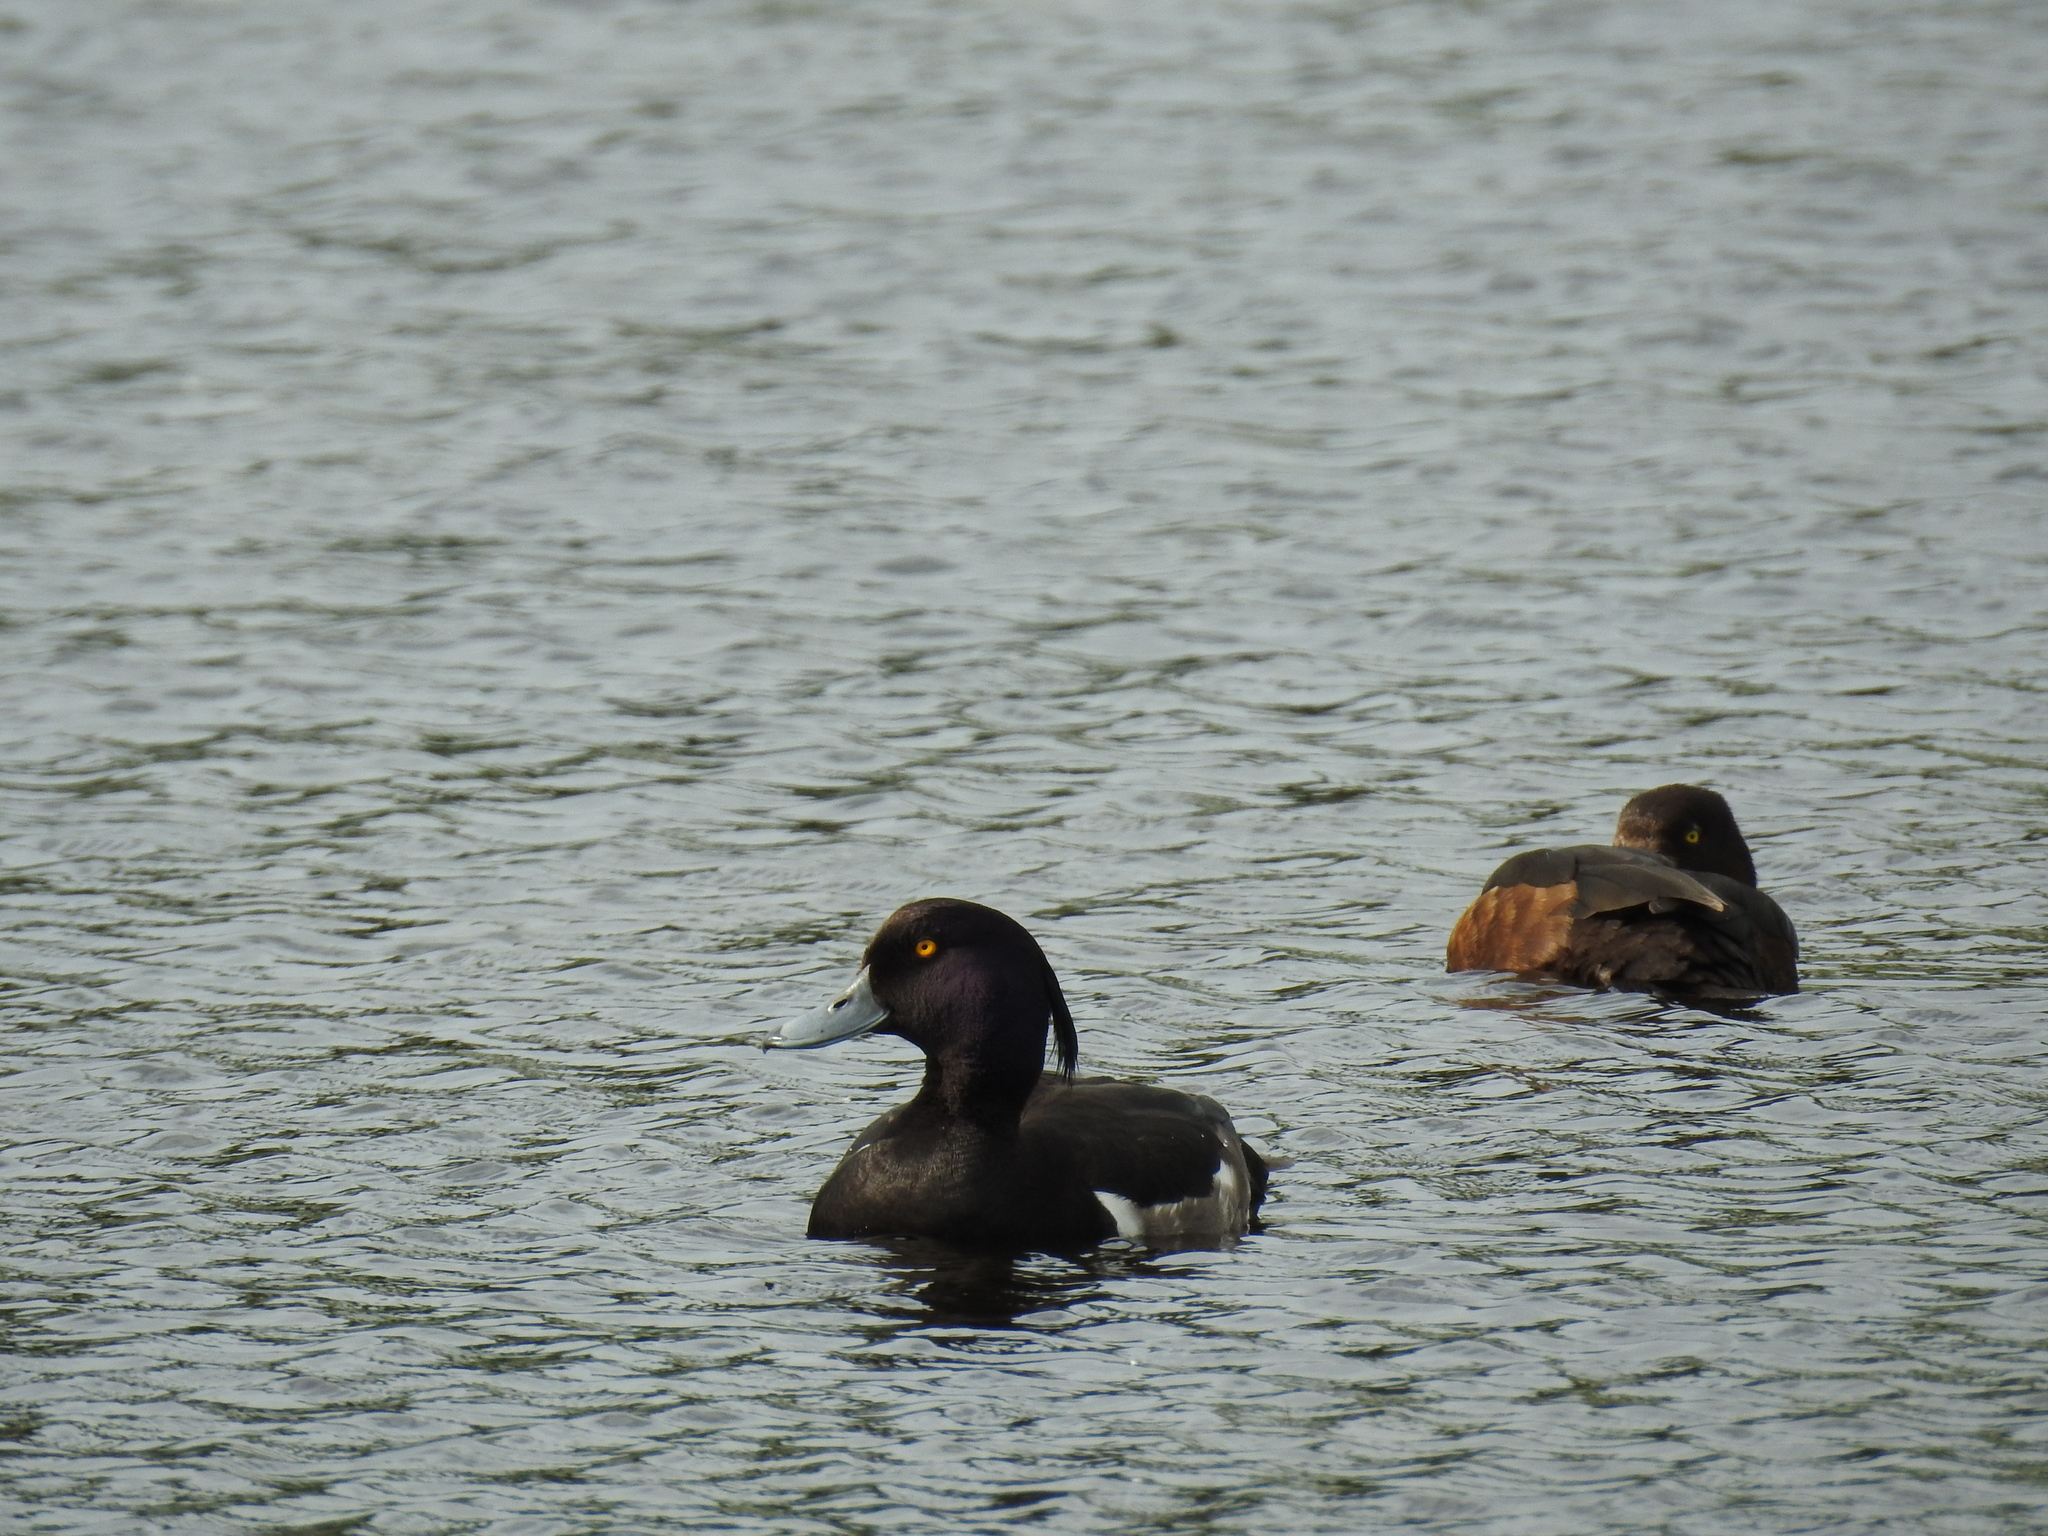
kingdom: Animalia
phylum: Chordata
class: Aves
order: Anseriformes
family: Anatidae
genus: Aythya
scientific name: Aythya fuligula
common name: Tufted duck
